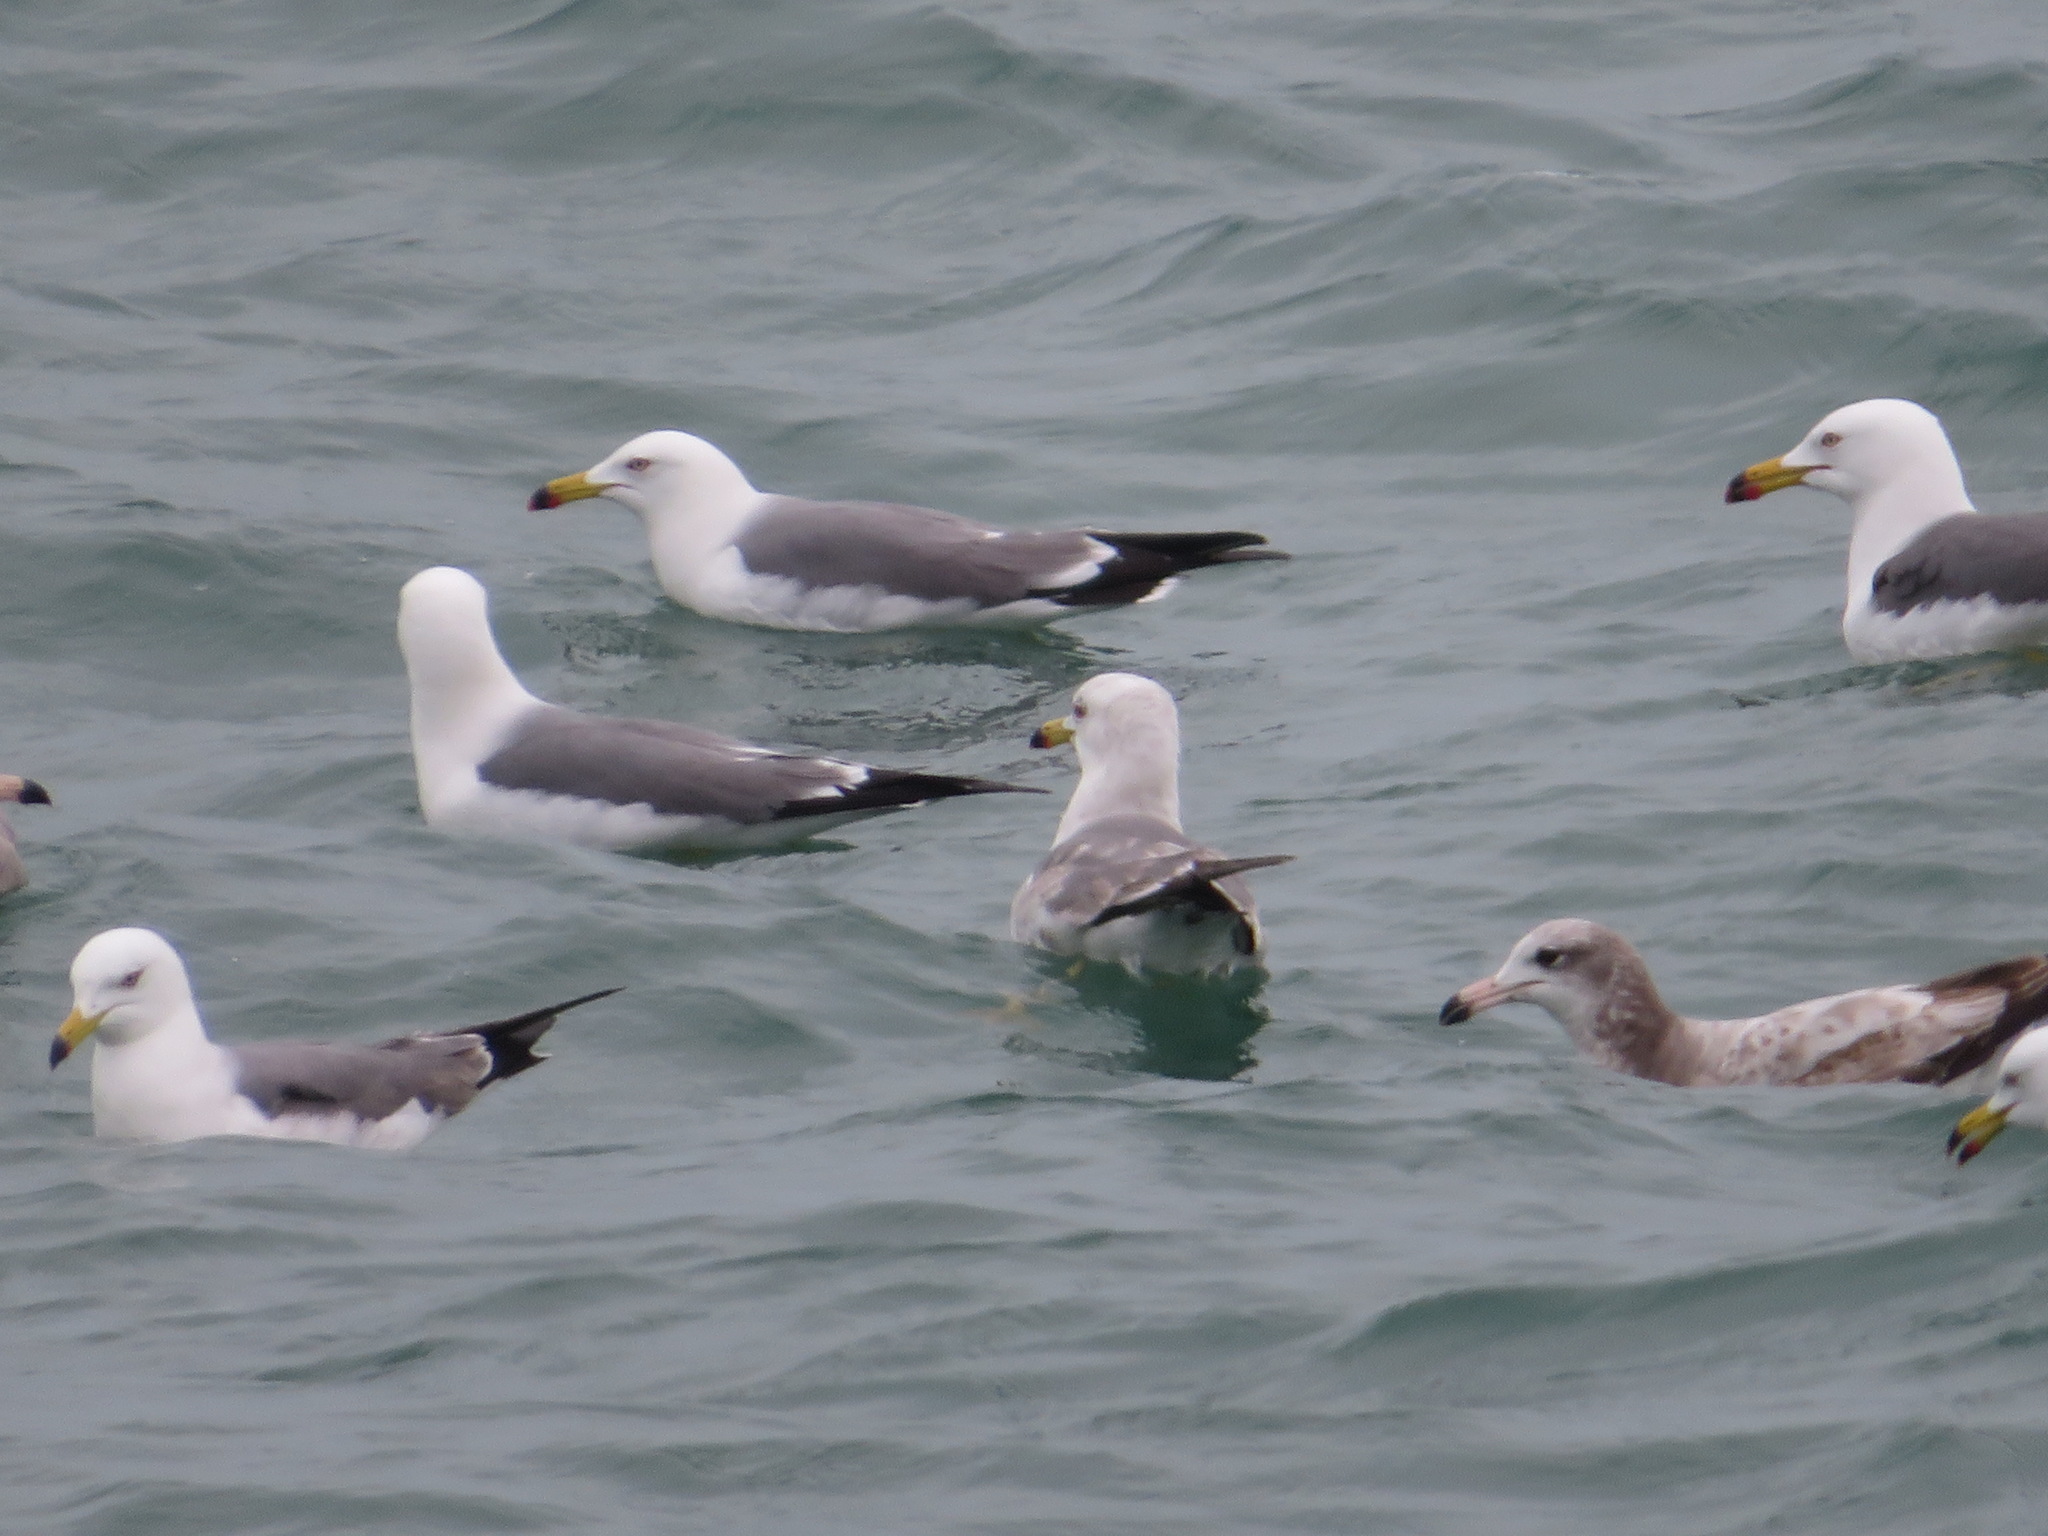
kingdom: Animalia
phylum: Chordata
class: Aves
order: Charadriiformes
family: Laridae
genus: Larus
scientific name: Larus crassirostris
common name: Black-tailed gull
